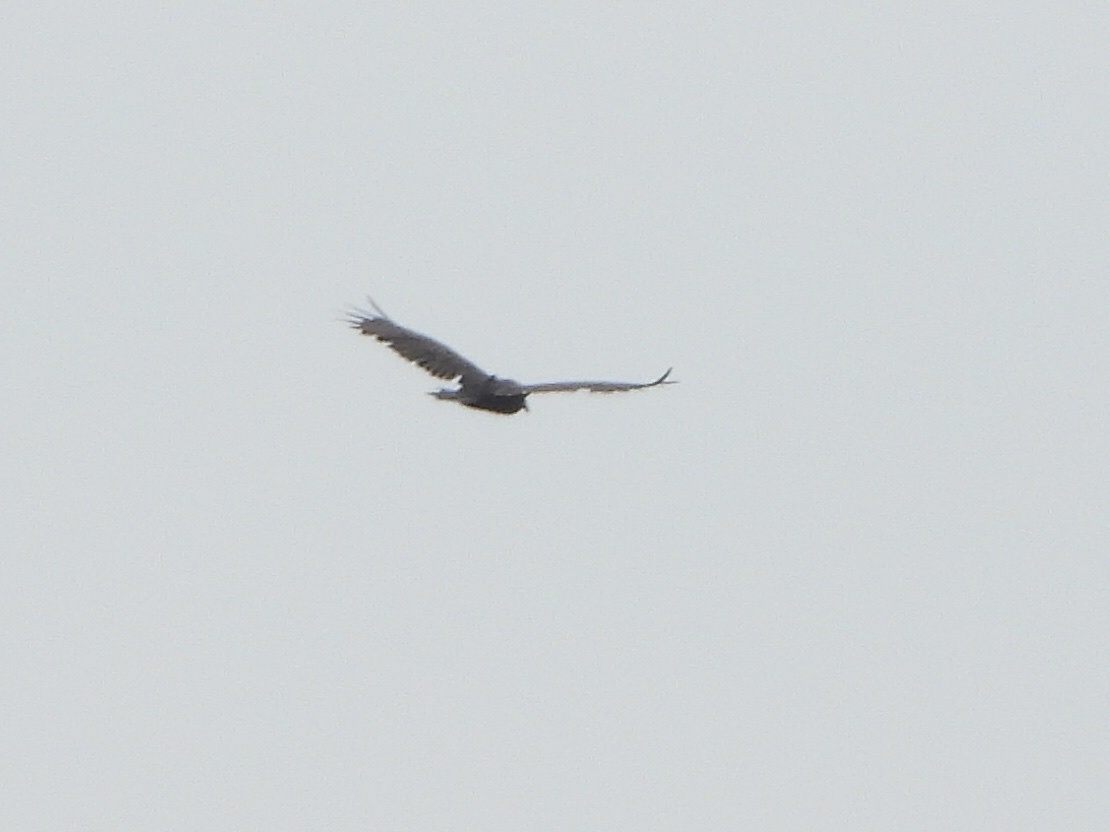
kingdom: Animalia
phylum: Chordata
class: Aves
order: Accipitriformes
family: Cathartidae
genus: Cathartes
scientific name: Cathartes aura
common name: Turkey vulture
